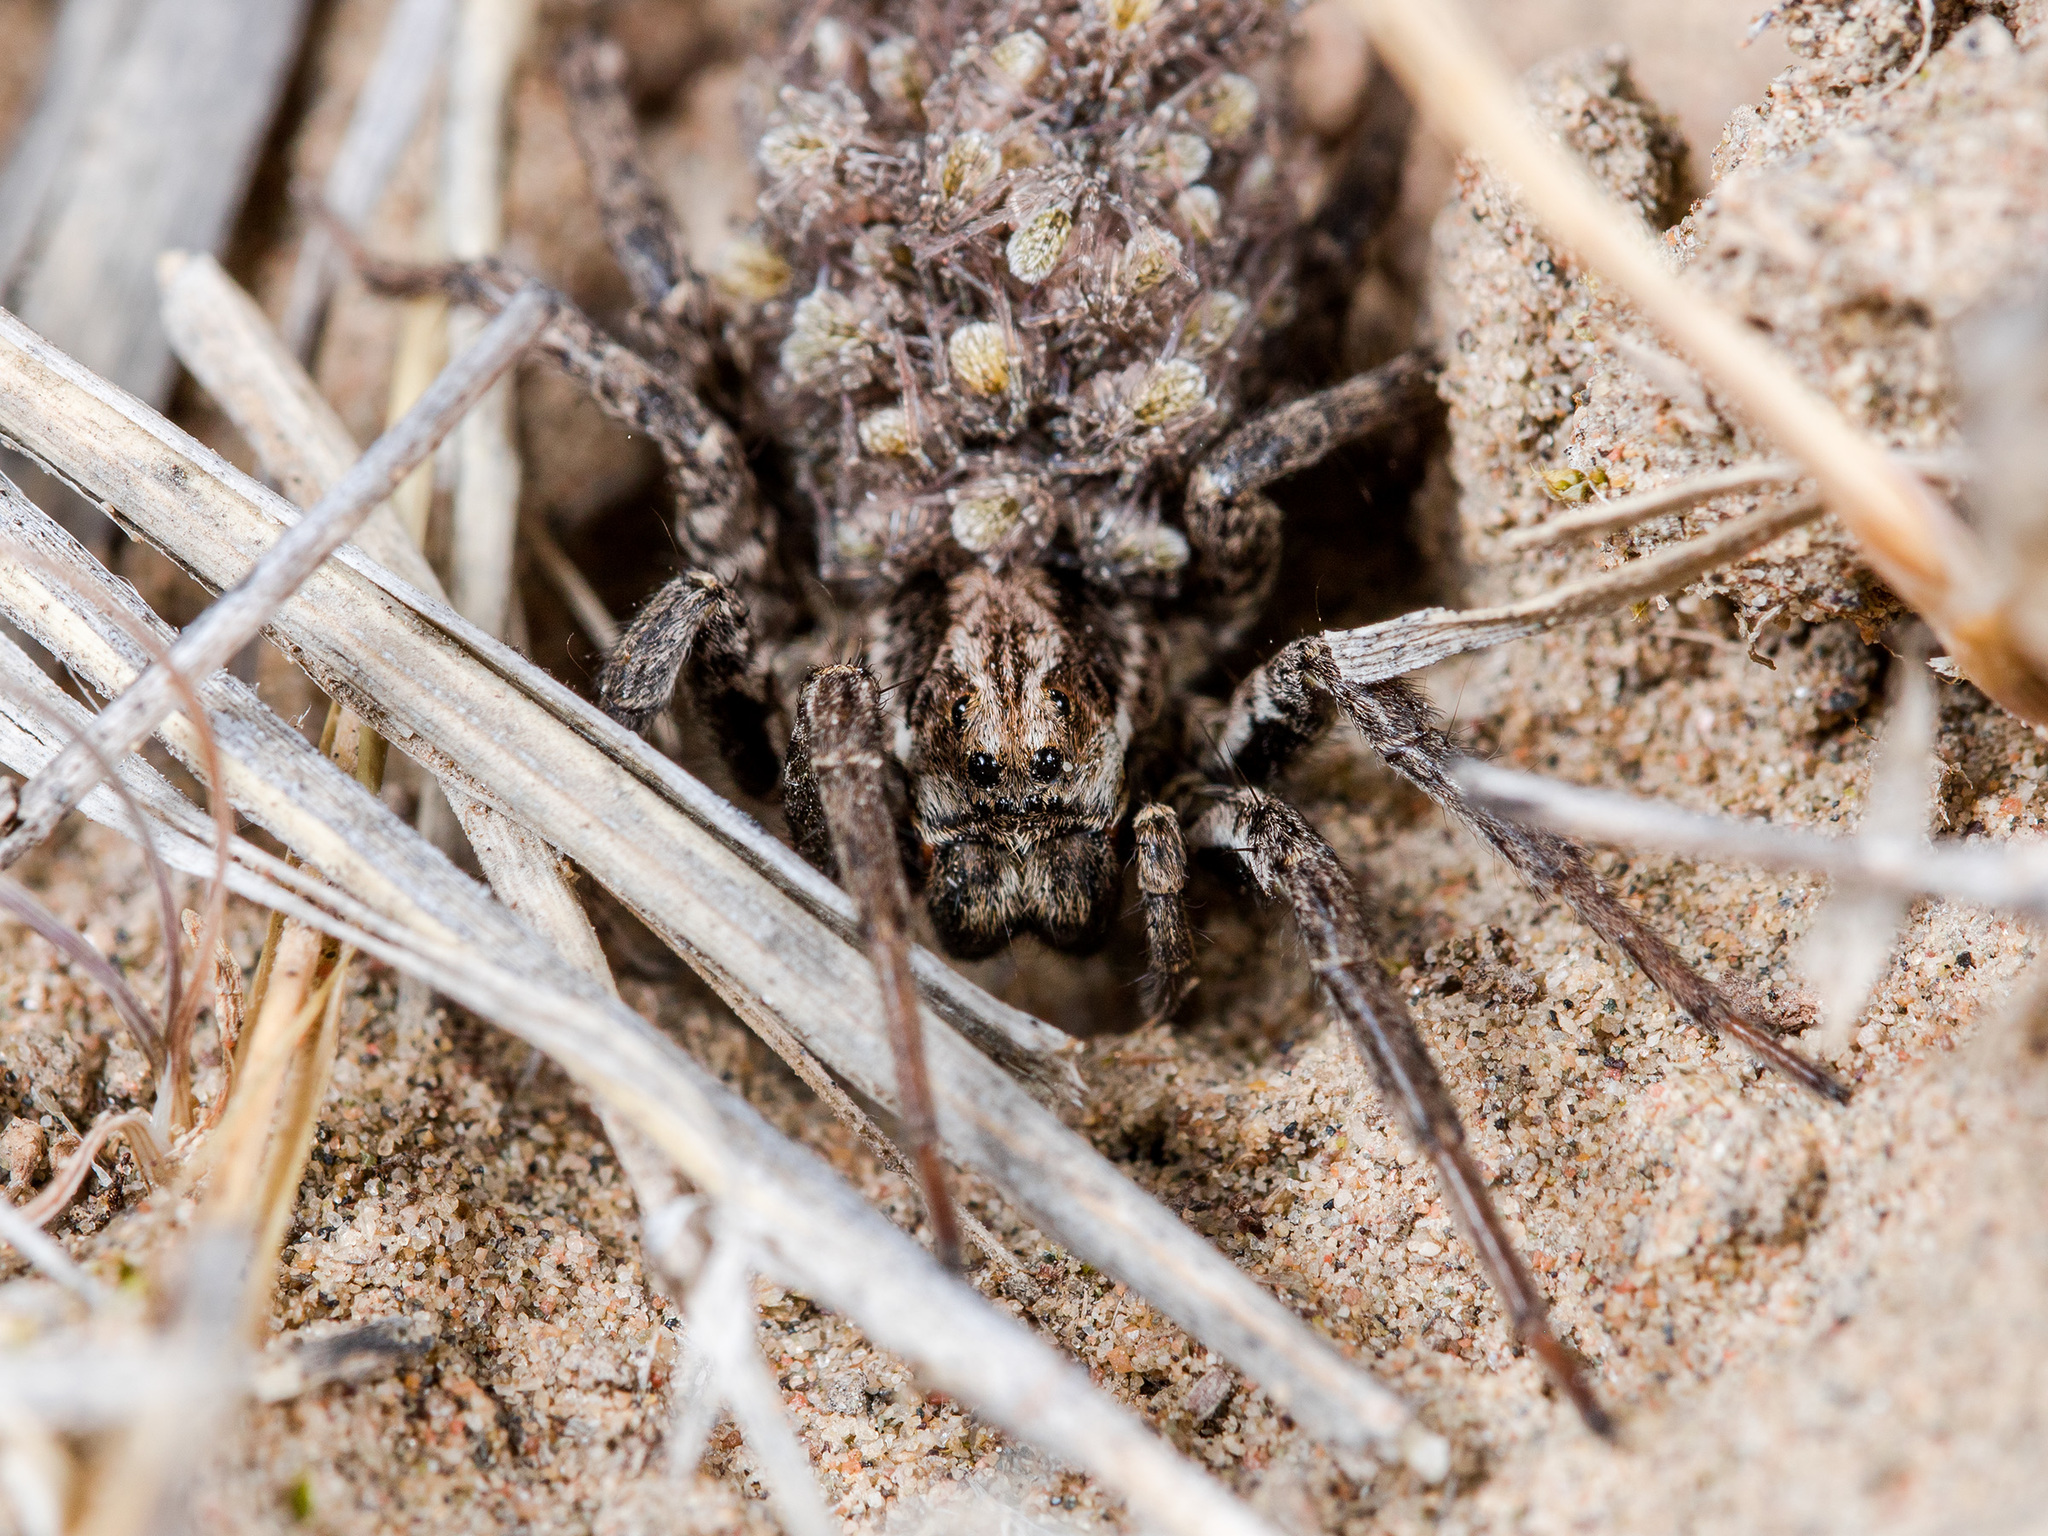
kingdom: Animalia
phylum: Arthropoda
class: Arachnida
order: Araneae
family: Lycosidae
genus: Alopecosa
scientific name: Alopecosa fedotovi
